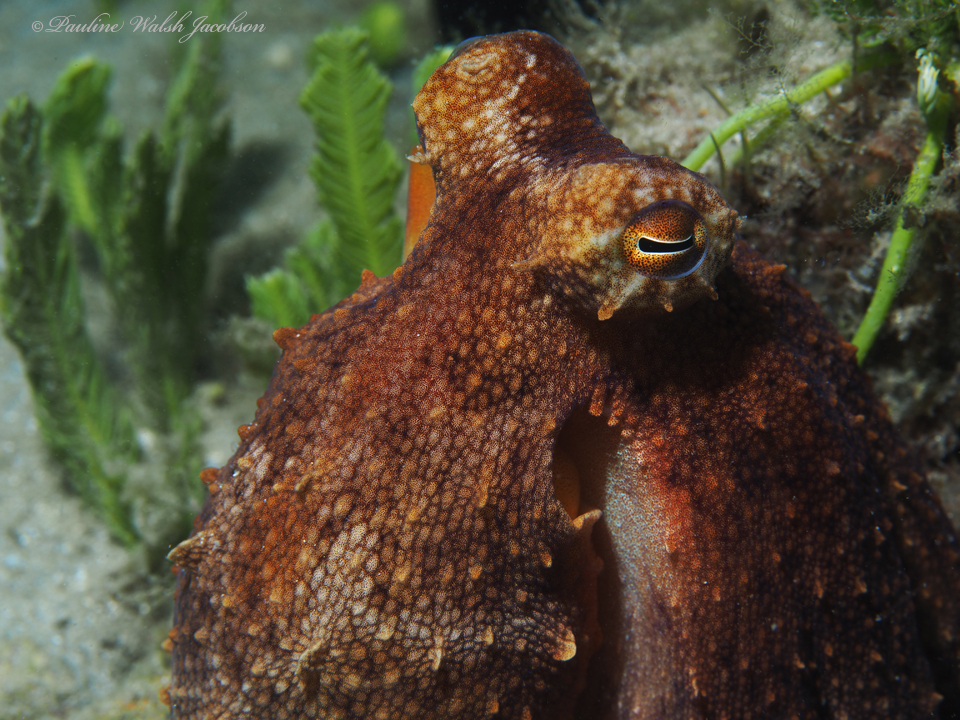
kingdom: Animalia
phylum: Mollusca
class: Cephalopoda
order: Octopoda
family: Octopodidae
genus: Octopus
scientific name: Octopus americanus
